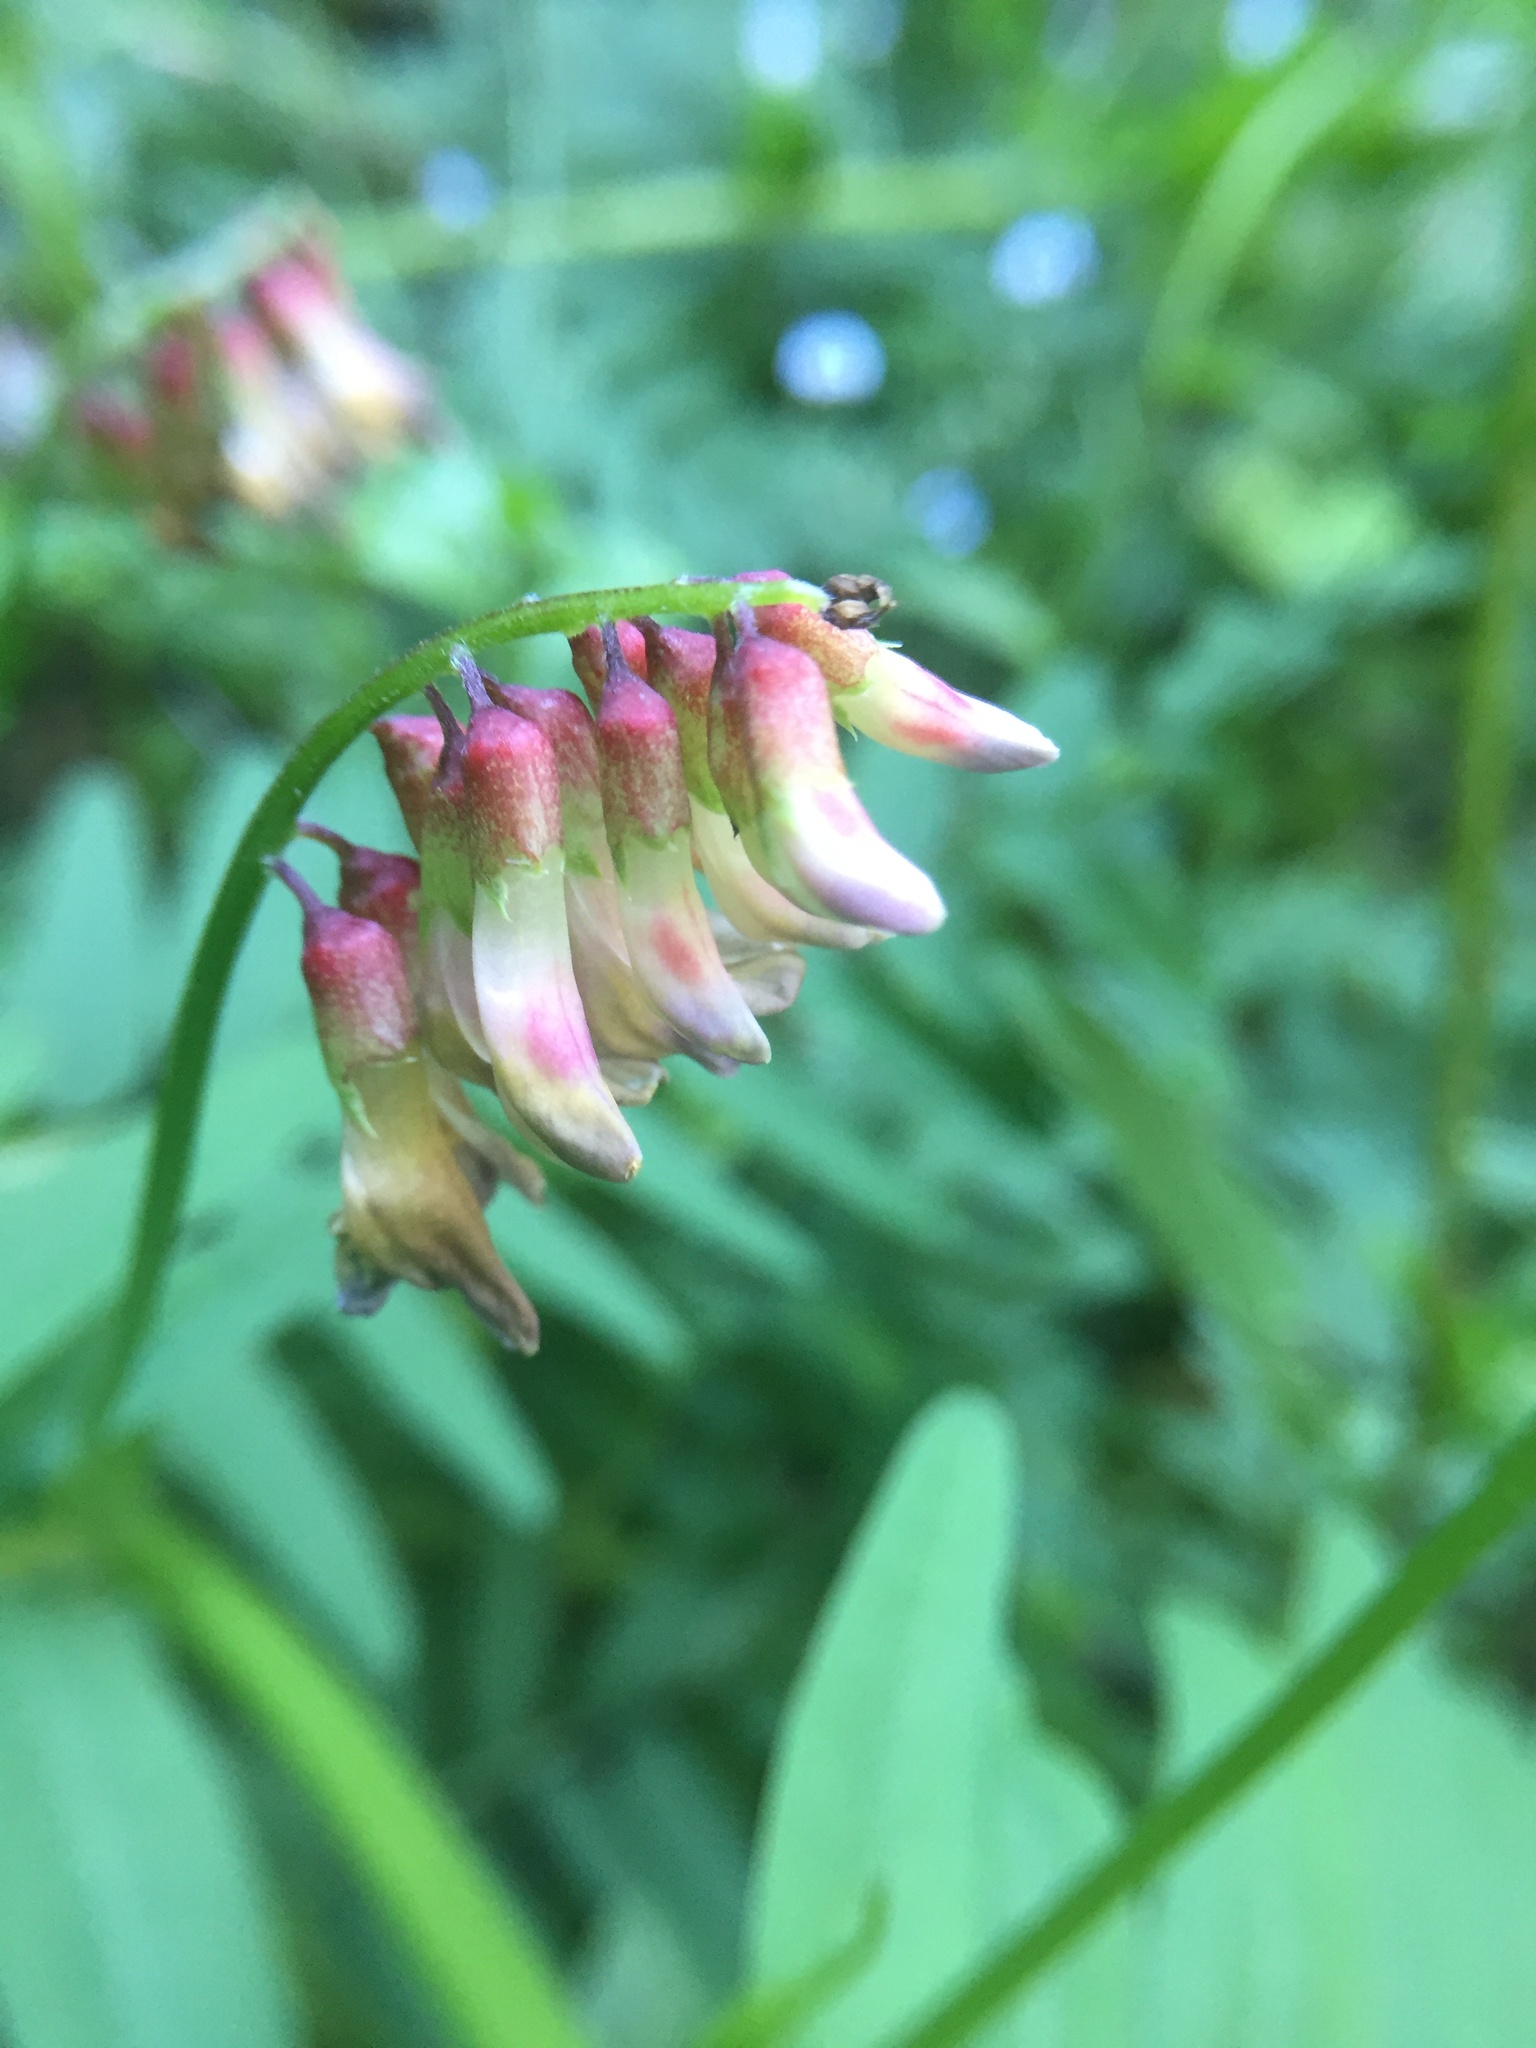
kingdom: Plantae
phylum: Tracheophyta
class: Magnoliopsida
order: Fabales
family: Fabaceae
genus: Vicia
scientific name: Vicia
